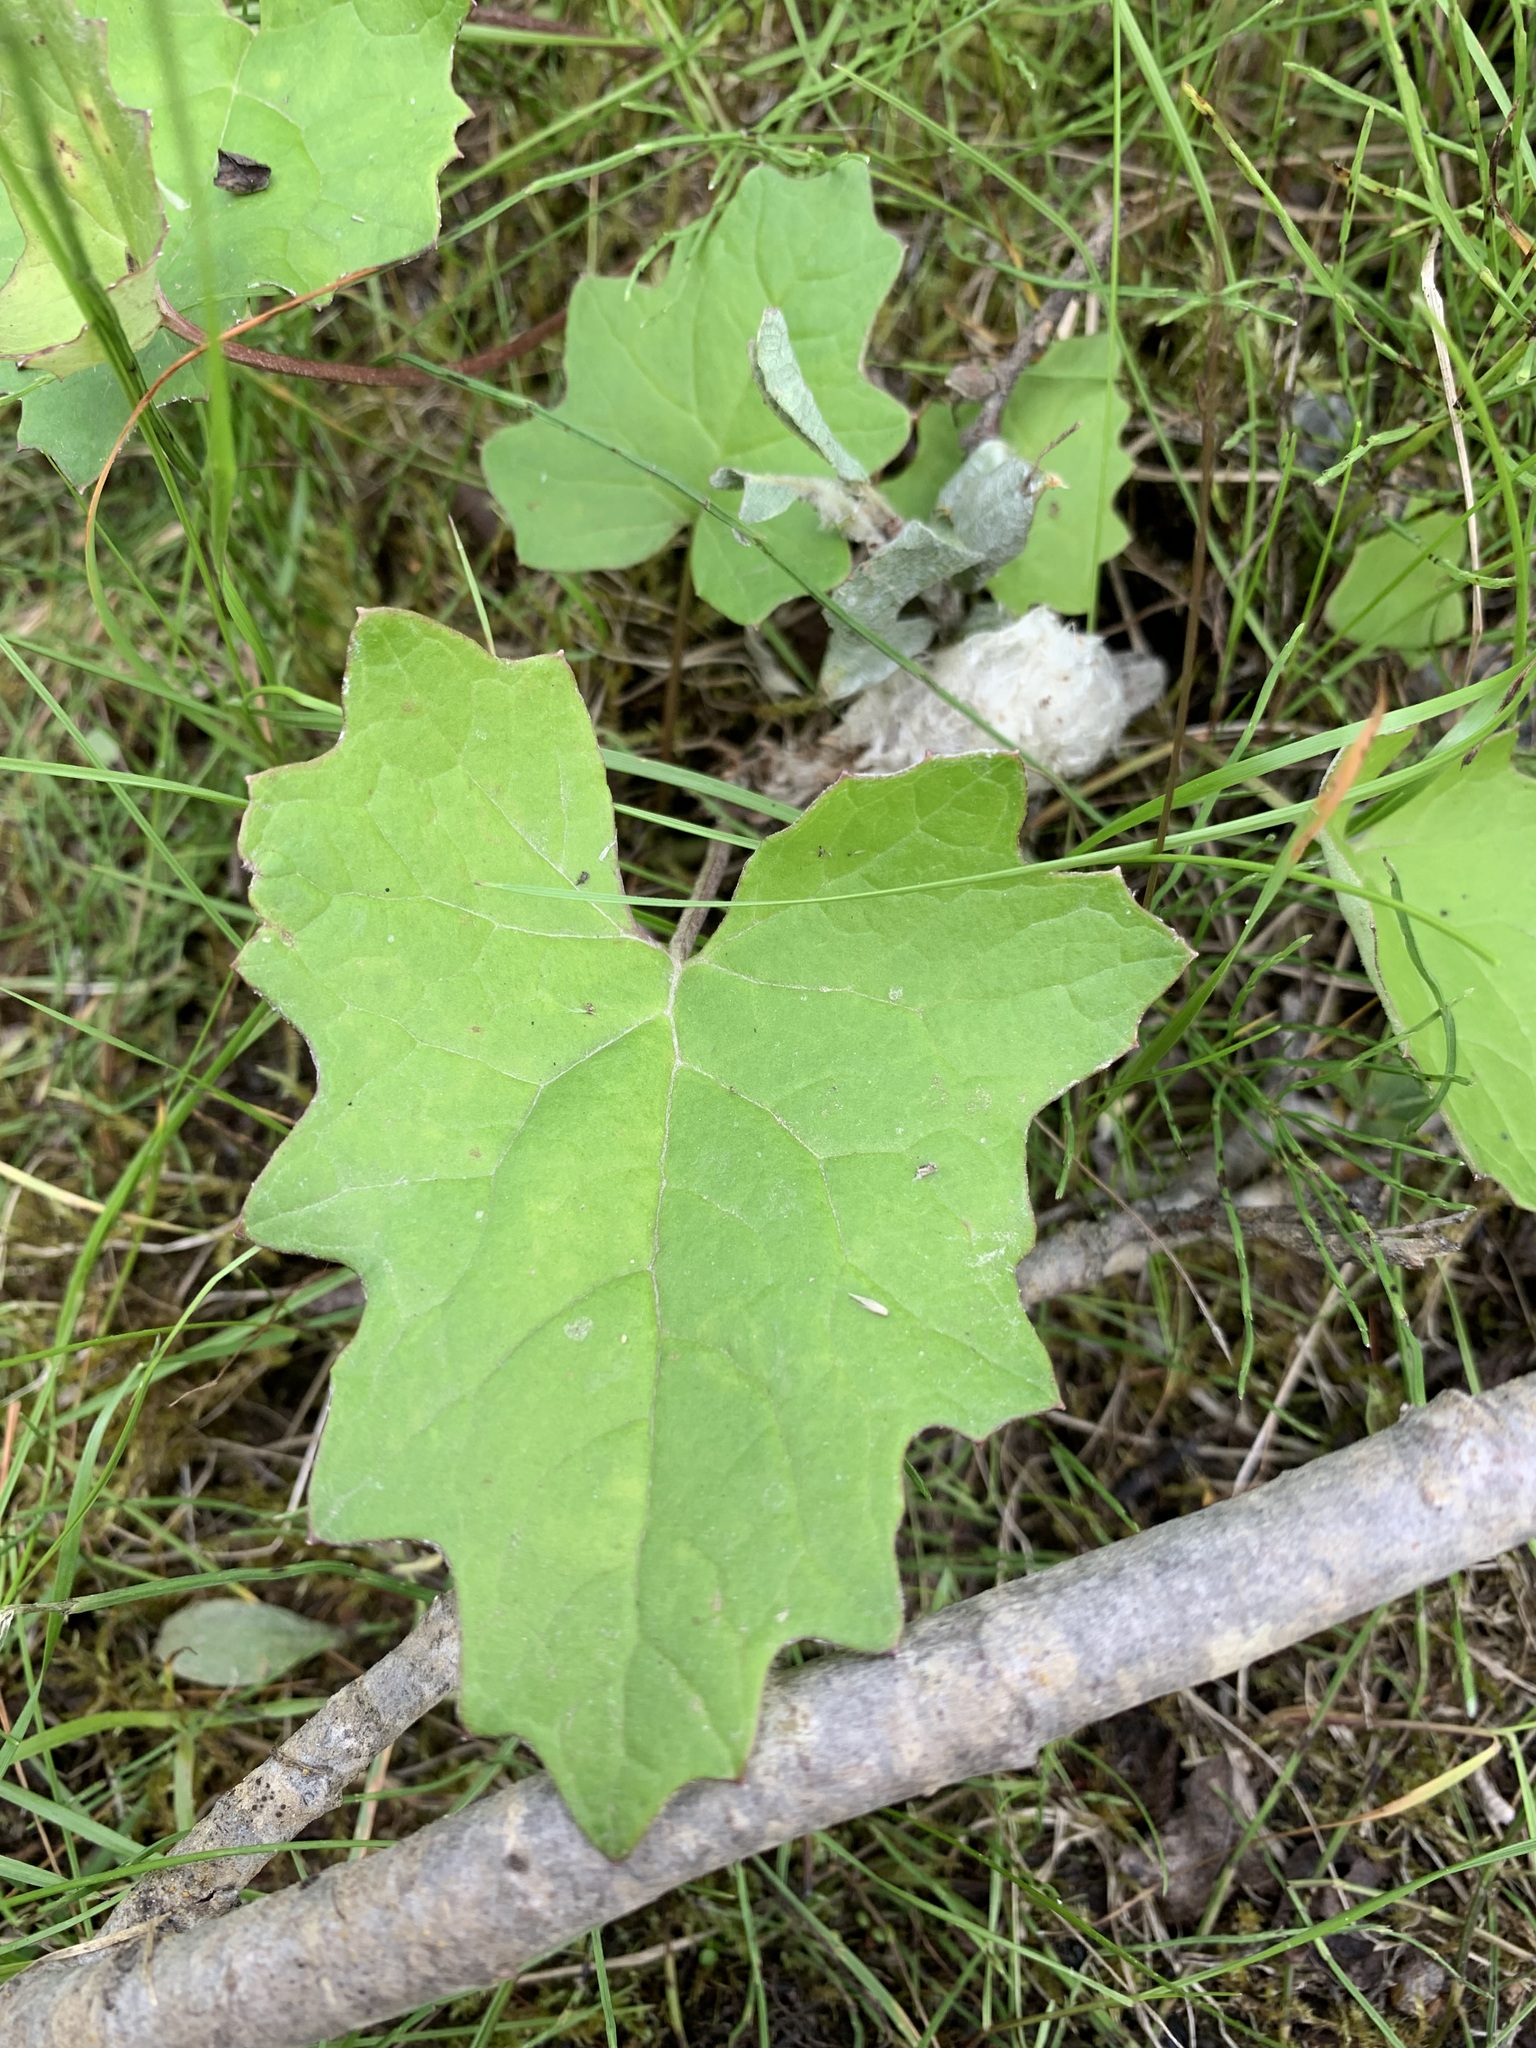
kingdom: Plantae
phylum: Tracheophyta
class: Magnoliopsida
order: Asterales
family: Asteraceae
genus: Petasites
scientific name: Petasites frigidus
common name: Arctic butterbur
